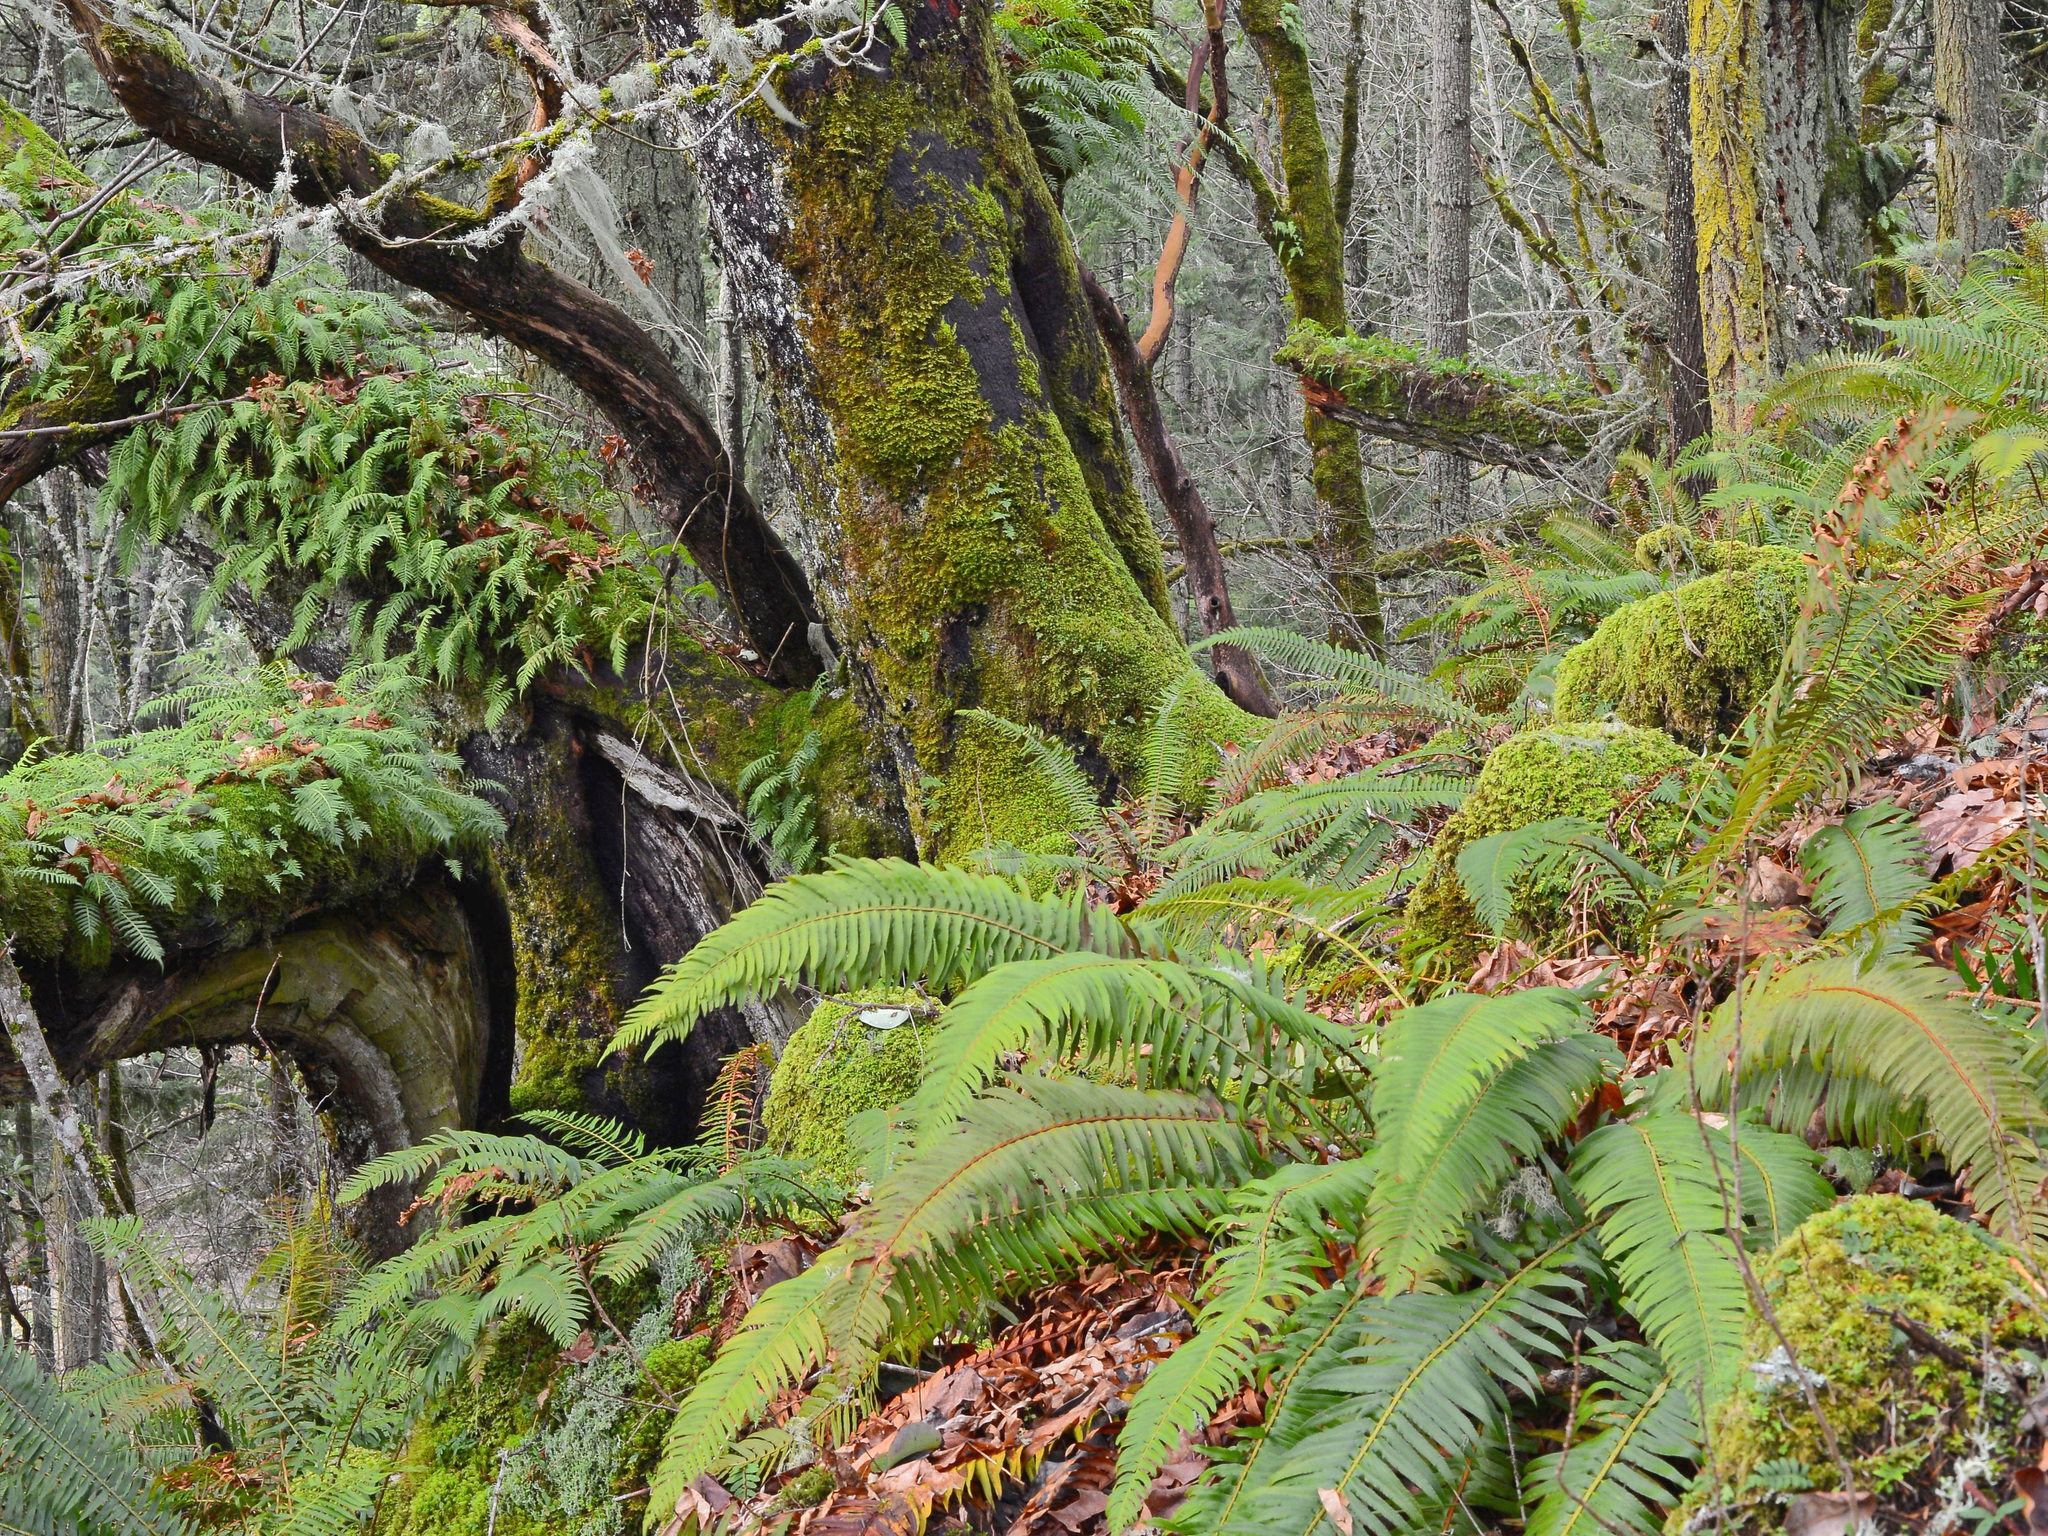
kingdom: Plantae
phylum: Tracheophyta
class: Polypodiopsida
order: Polypodiales
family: Dryopteridaceae
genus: Polystichum
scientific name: Polystichum munitum
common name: Western sword-fern
